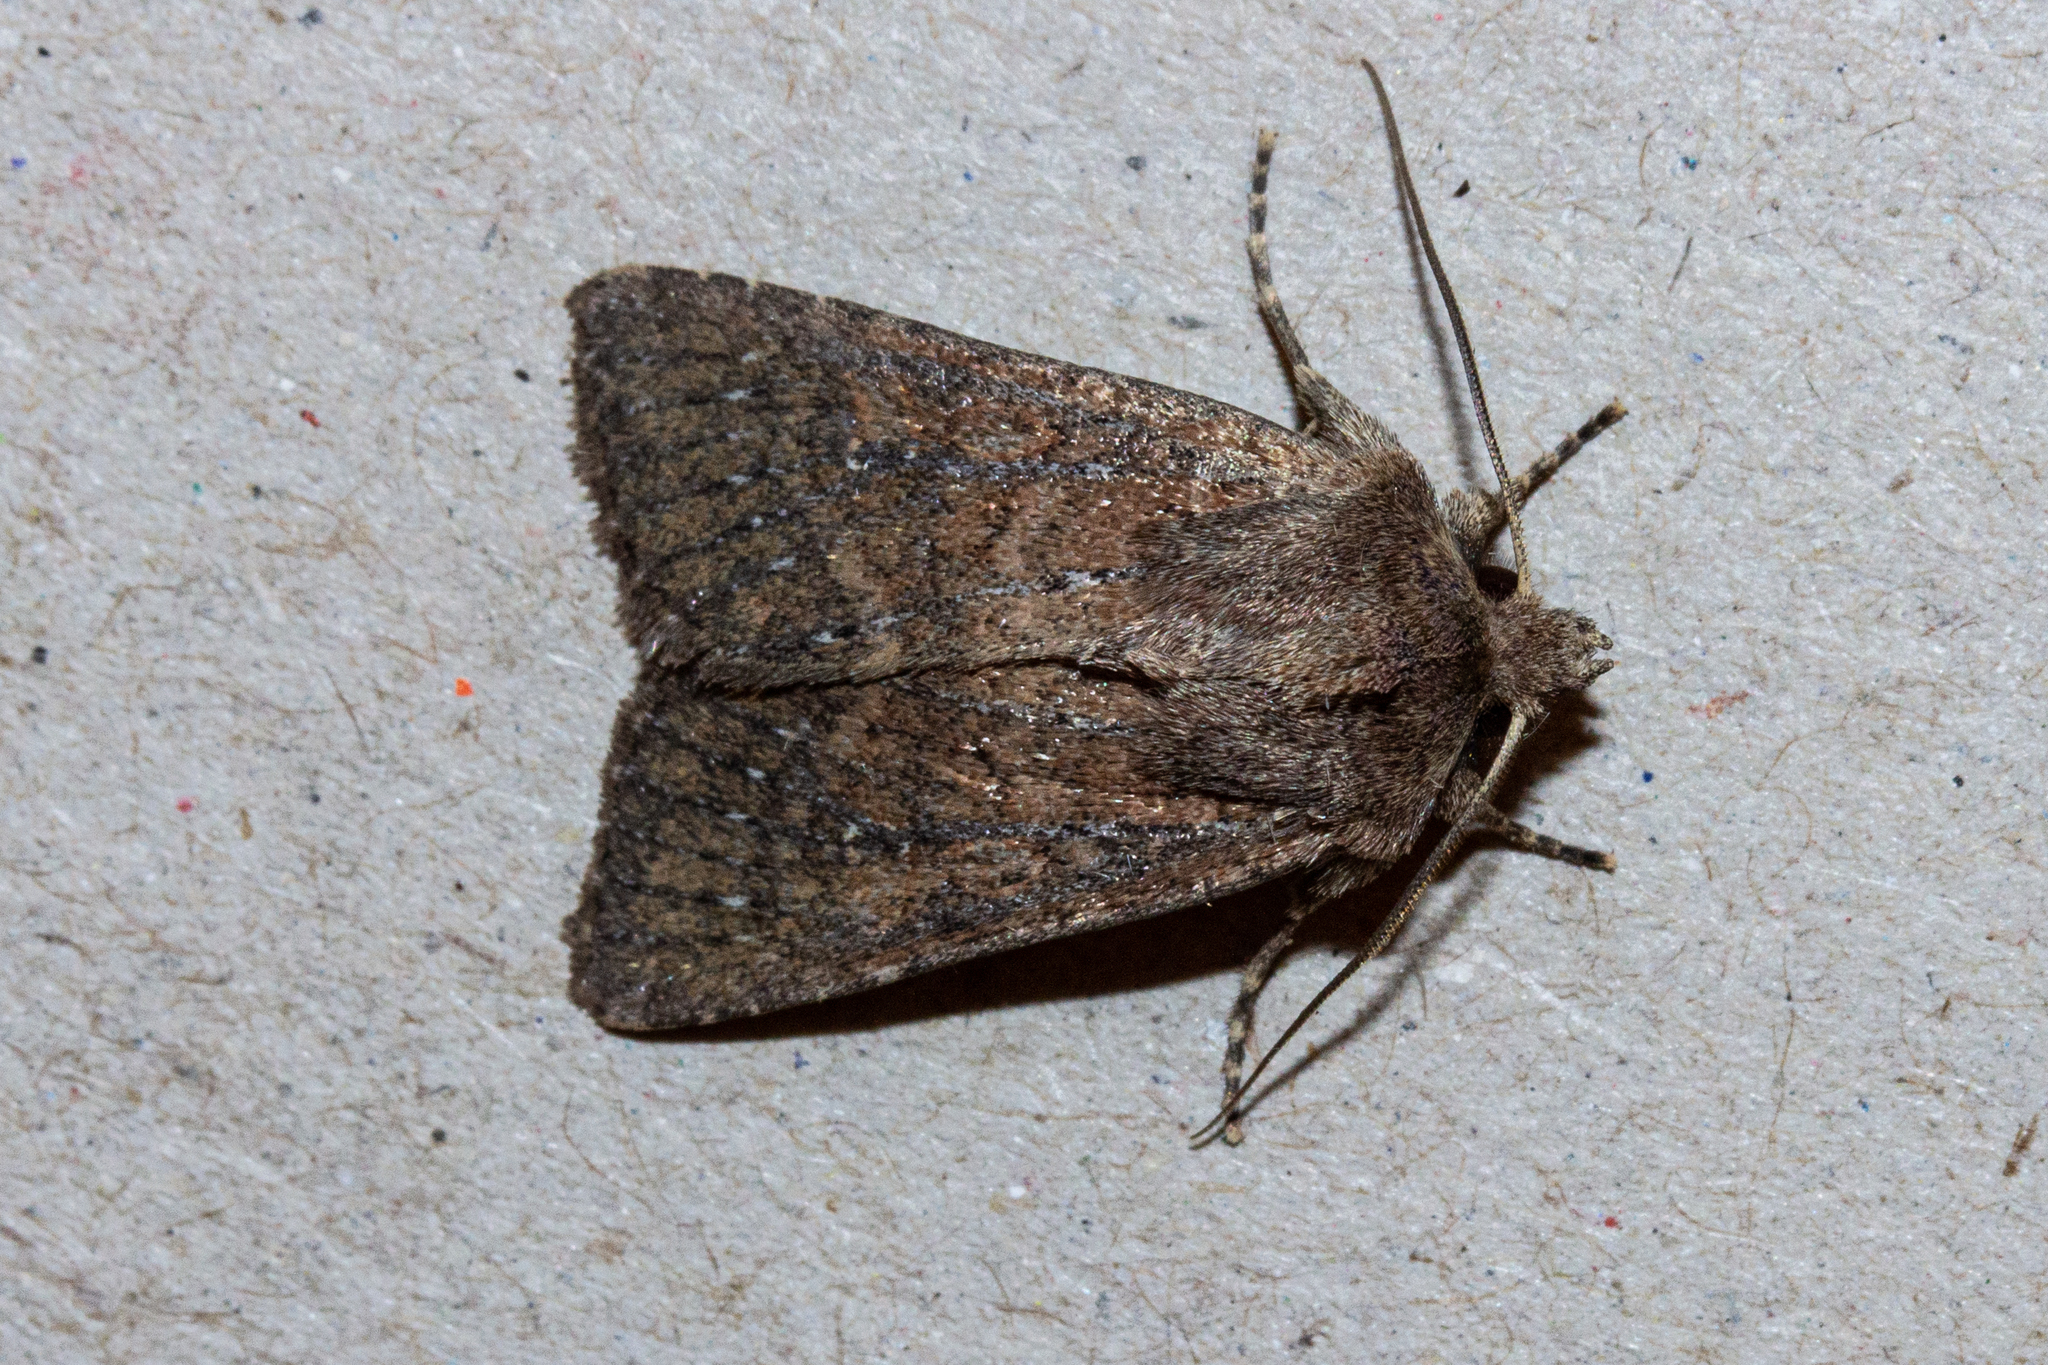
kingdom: Animalia
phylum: Arthropoda
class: Insecta
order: Lepidoptera
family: Noctuidae
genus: Physetica
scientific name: Physetica
